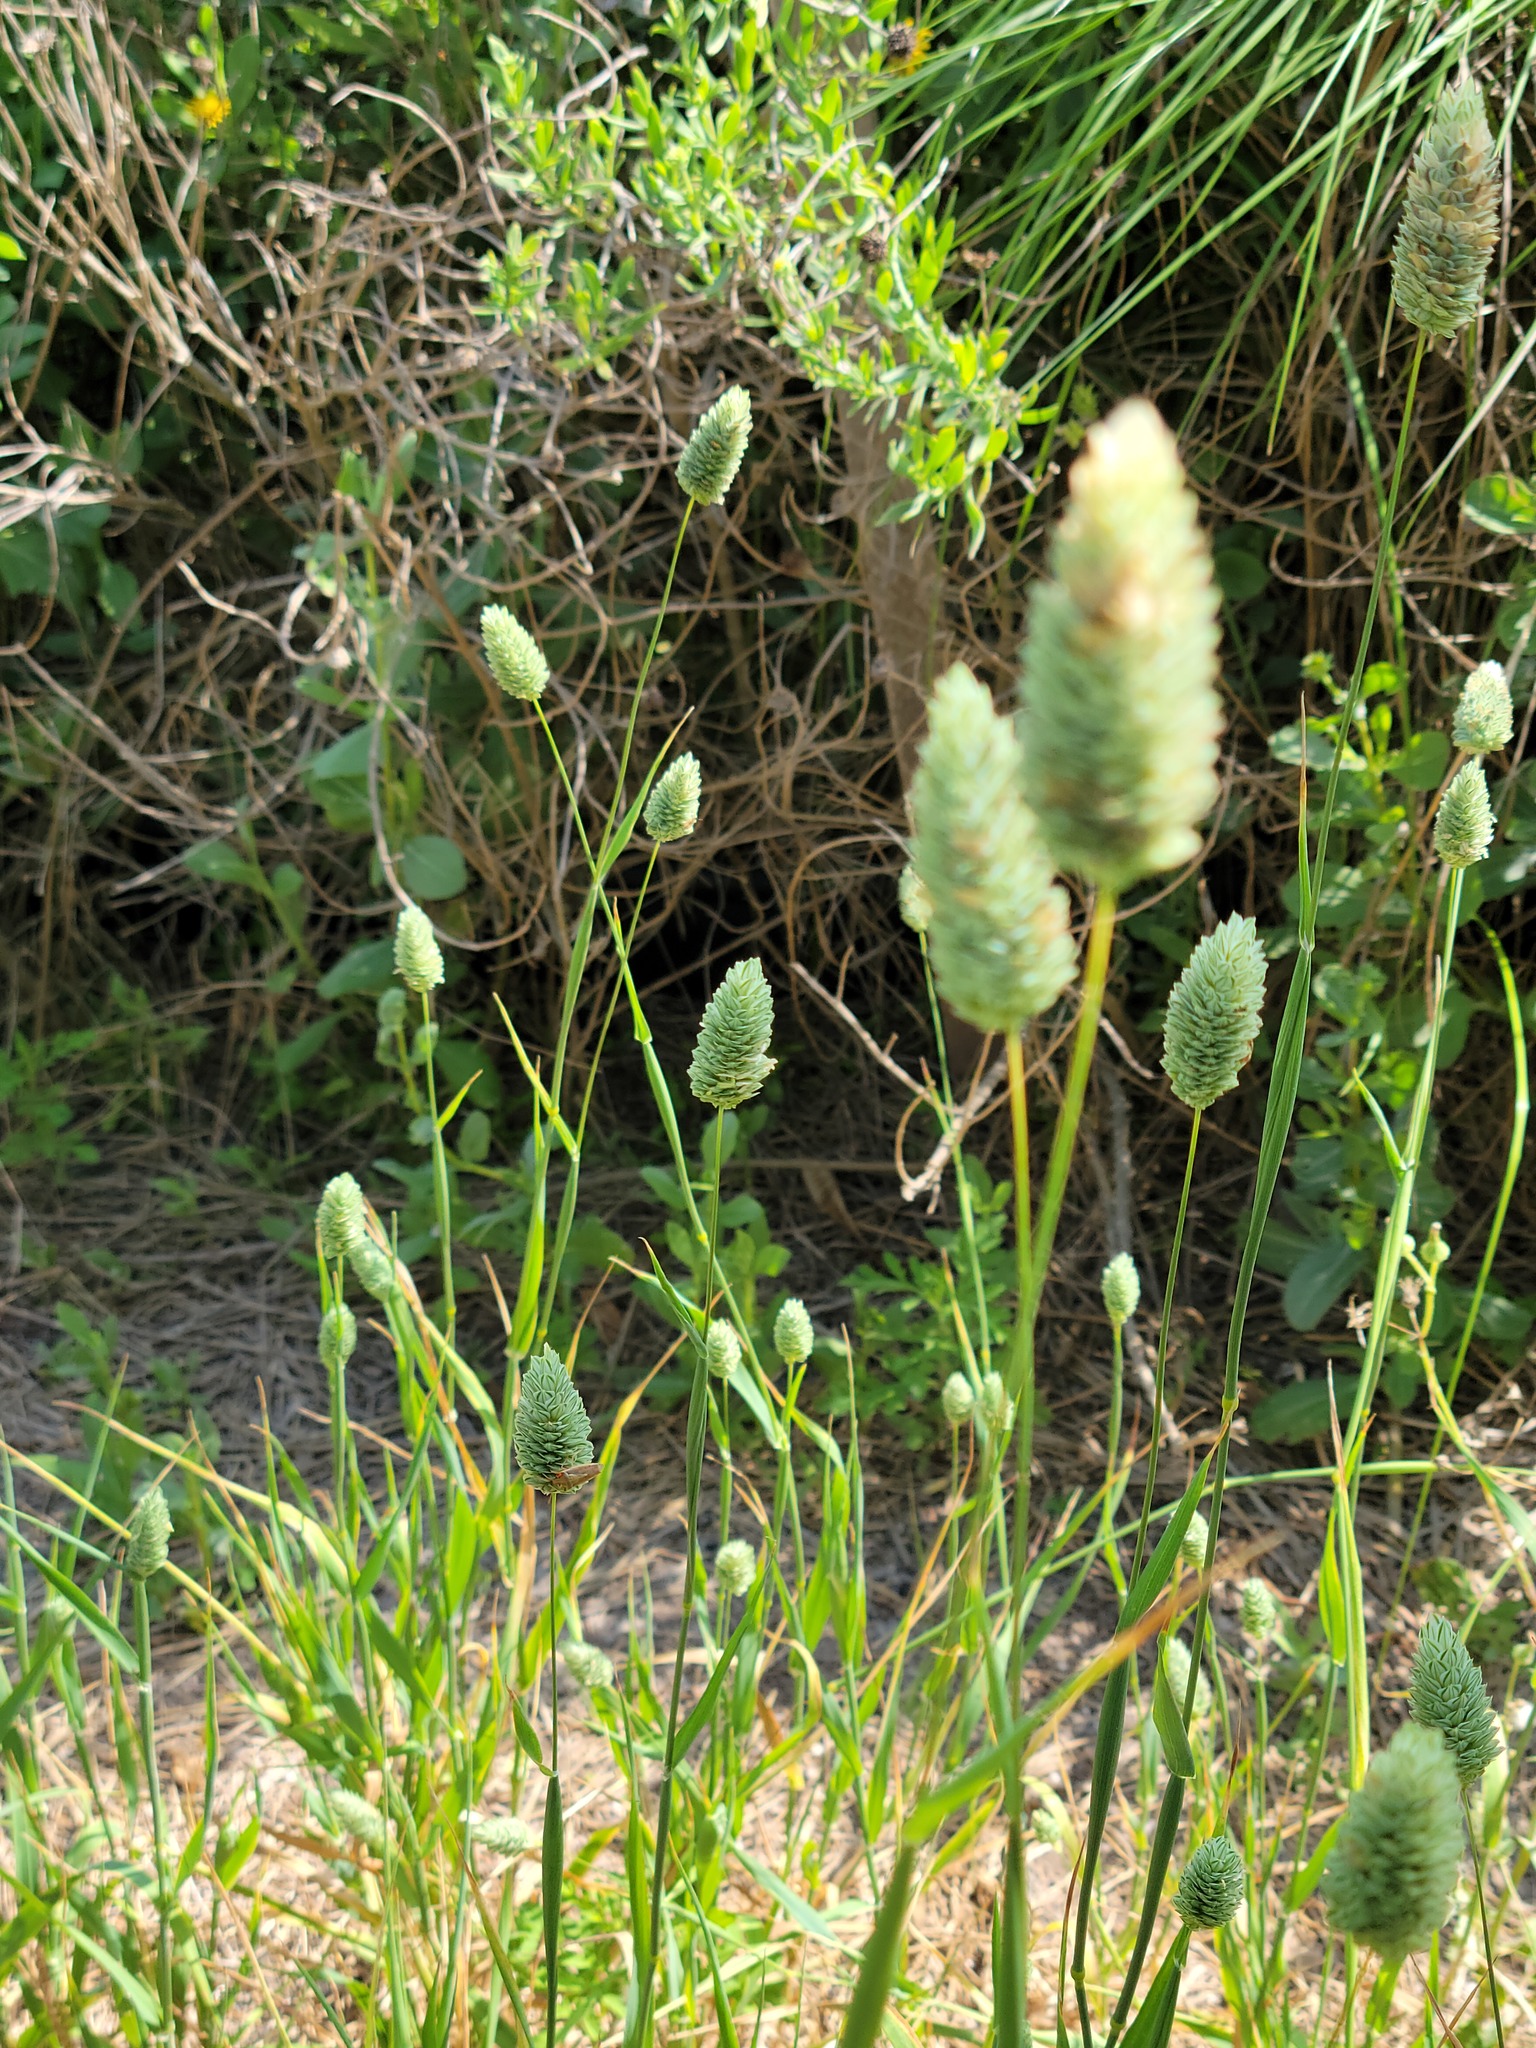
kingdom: Plantae
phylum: Tracheophyta
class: Liliopsida
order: Poales
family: Poaceae
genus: Phalaris
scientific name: Phalaris canariensis
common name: Annual canarygrass
